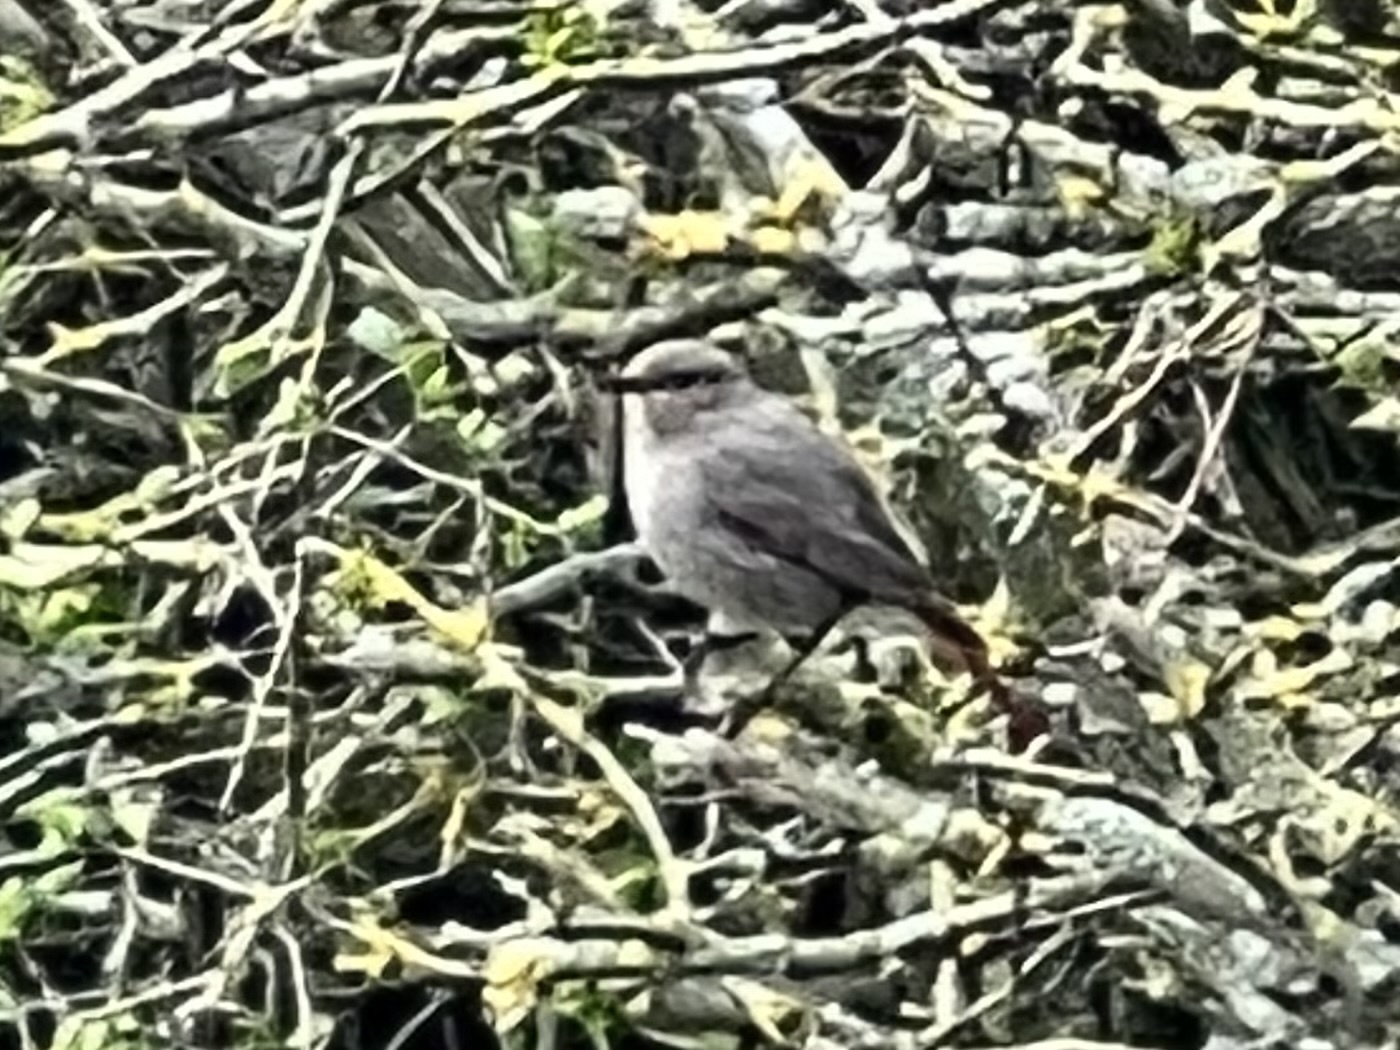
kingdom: Animalia
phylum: Chordata
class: Aves
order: Passeriformes
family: Muscicapidae
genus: Phoenicurus
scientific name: Phoenicurus ochruros
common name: Black redstart
